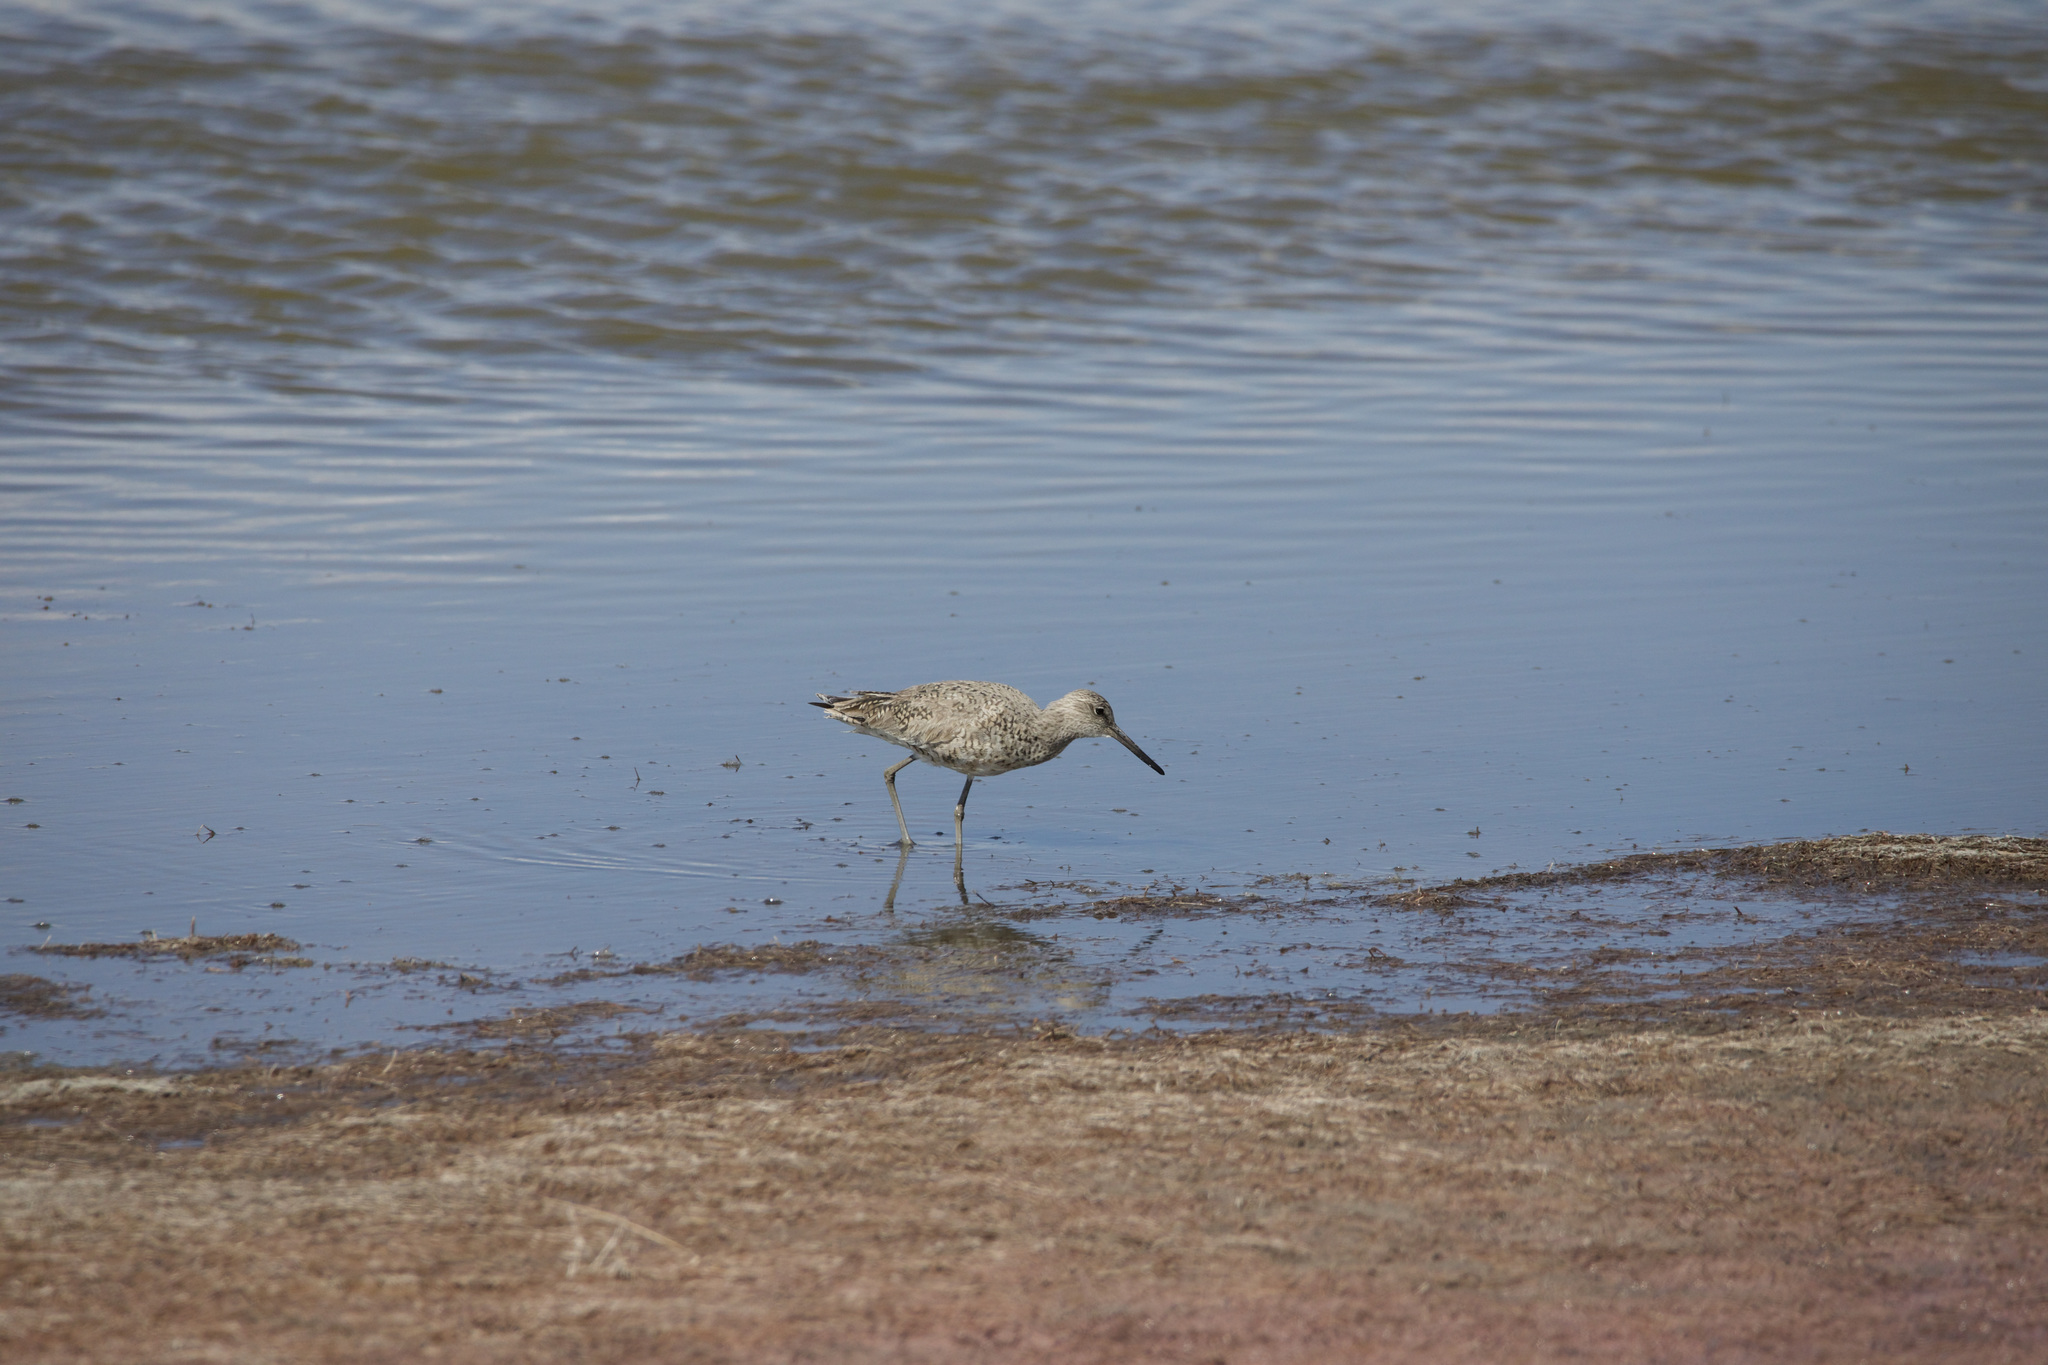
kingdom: Animalia
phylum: Chordata
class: Aves
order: Charadriiformes
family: Scolopacidae
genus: Tringa
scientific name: Tringa semipalmata
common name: Willet
